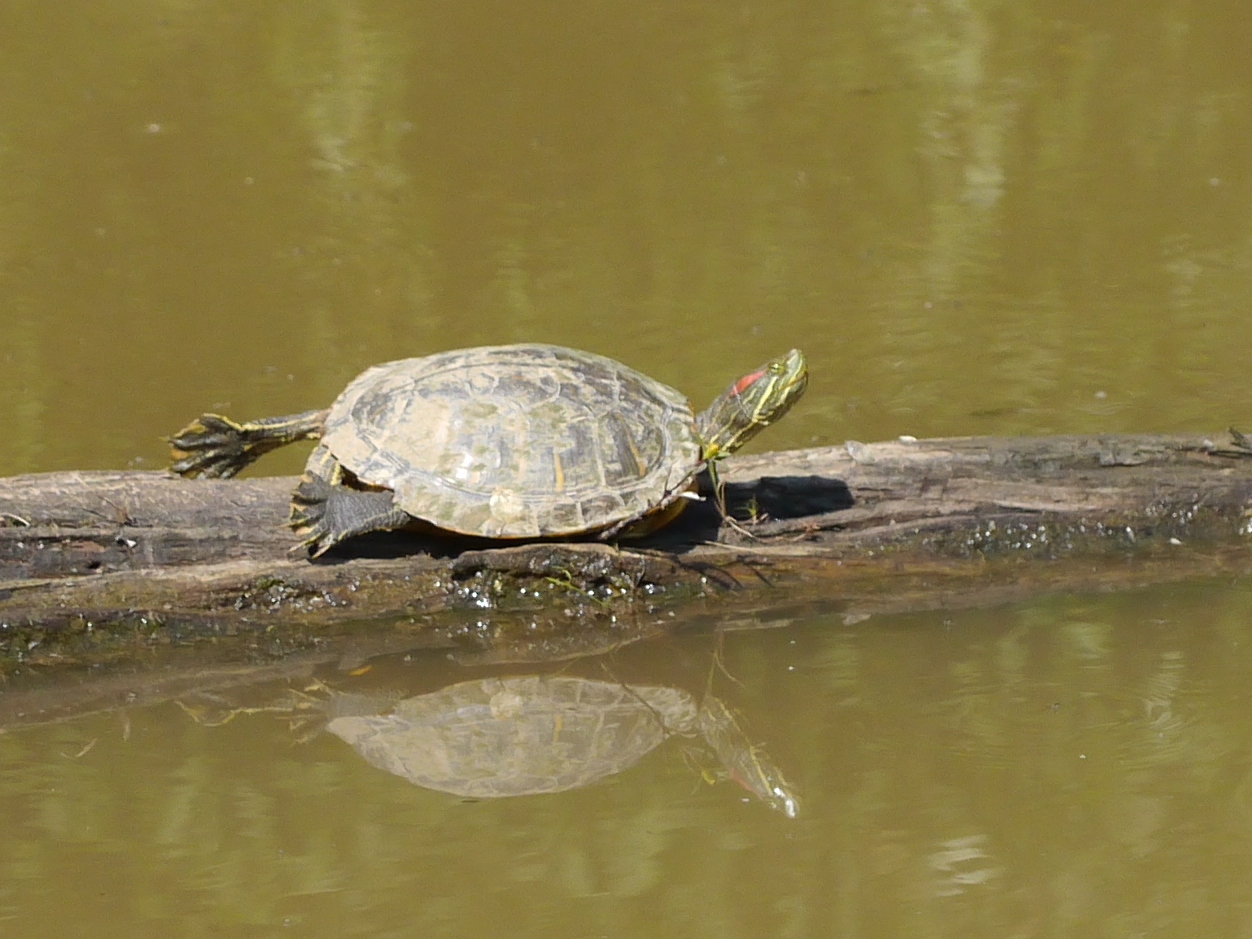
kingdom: Animalia
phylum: Chordata
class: Testudines
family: Emydidae
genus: Trachemys
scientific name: Trachemys scripta
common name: Slider
